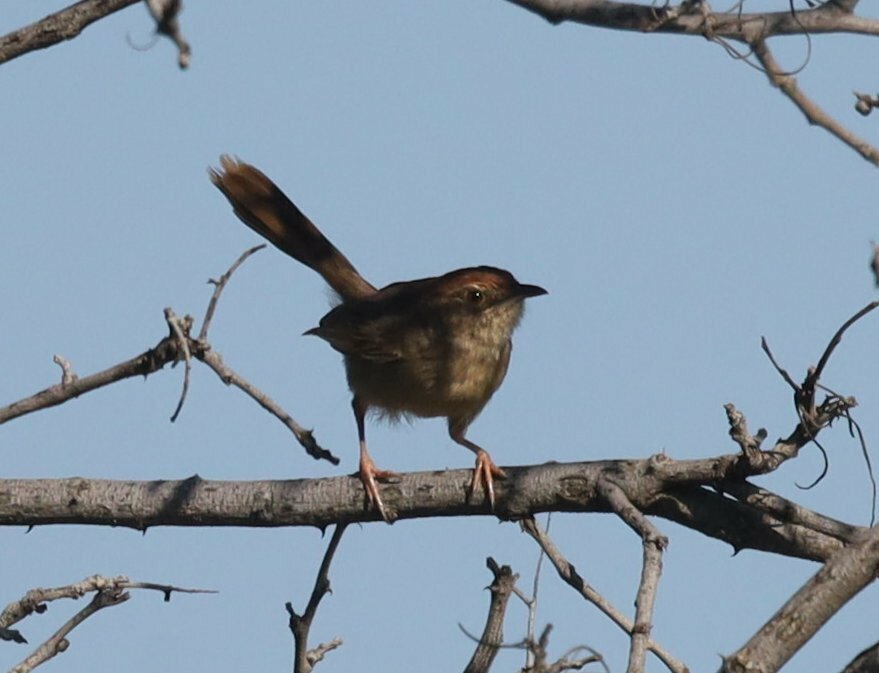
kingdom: Animalia
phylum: Chordata
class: Aves
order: Passeriformes
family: Cisticolidae
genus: Cisticola
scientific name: Cisticola aberrans
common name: Lazy cisticola
